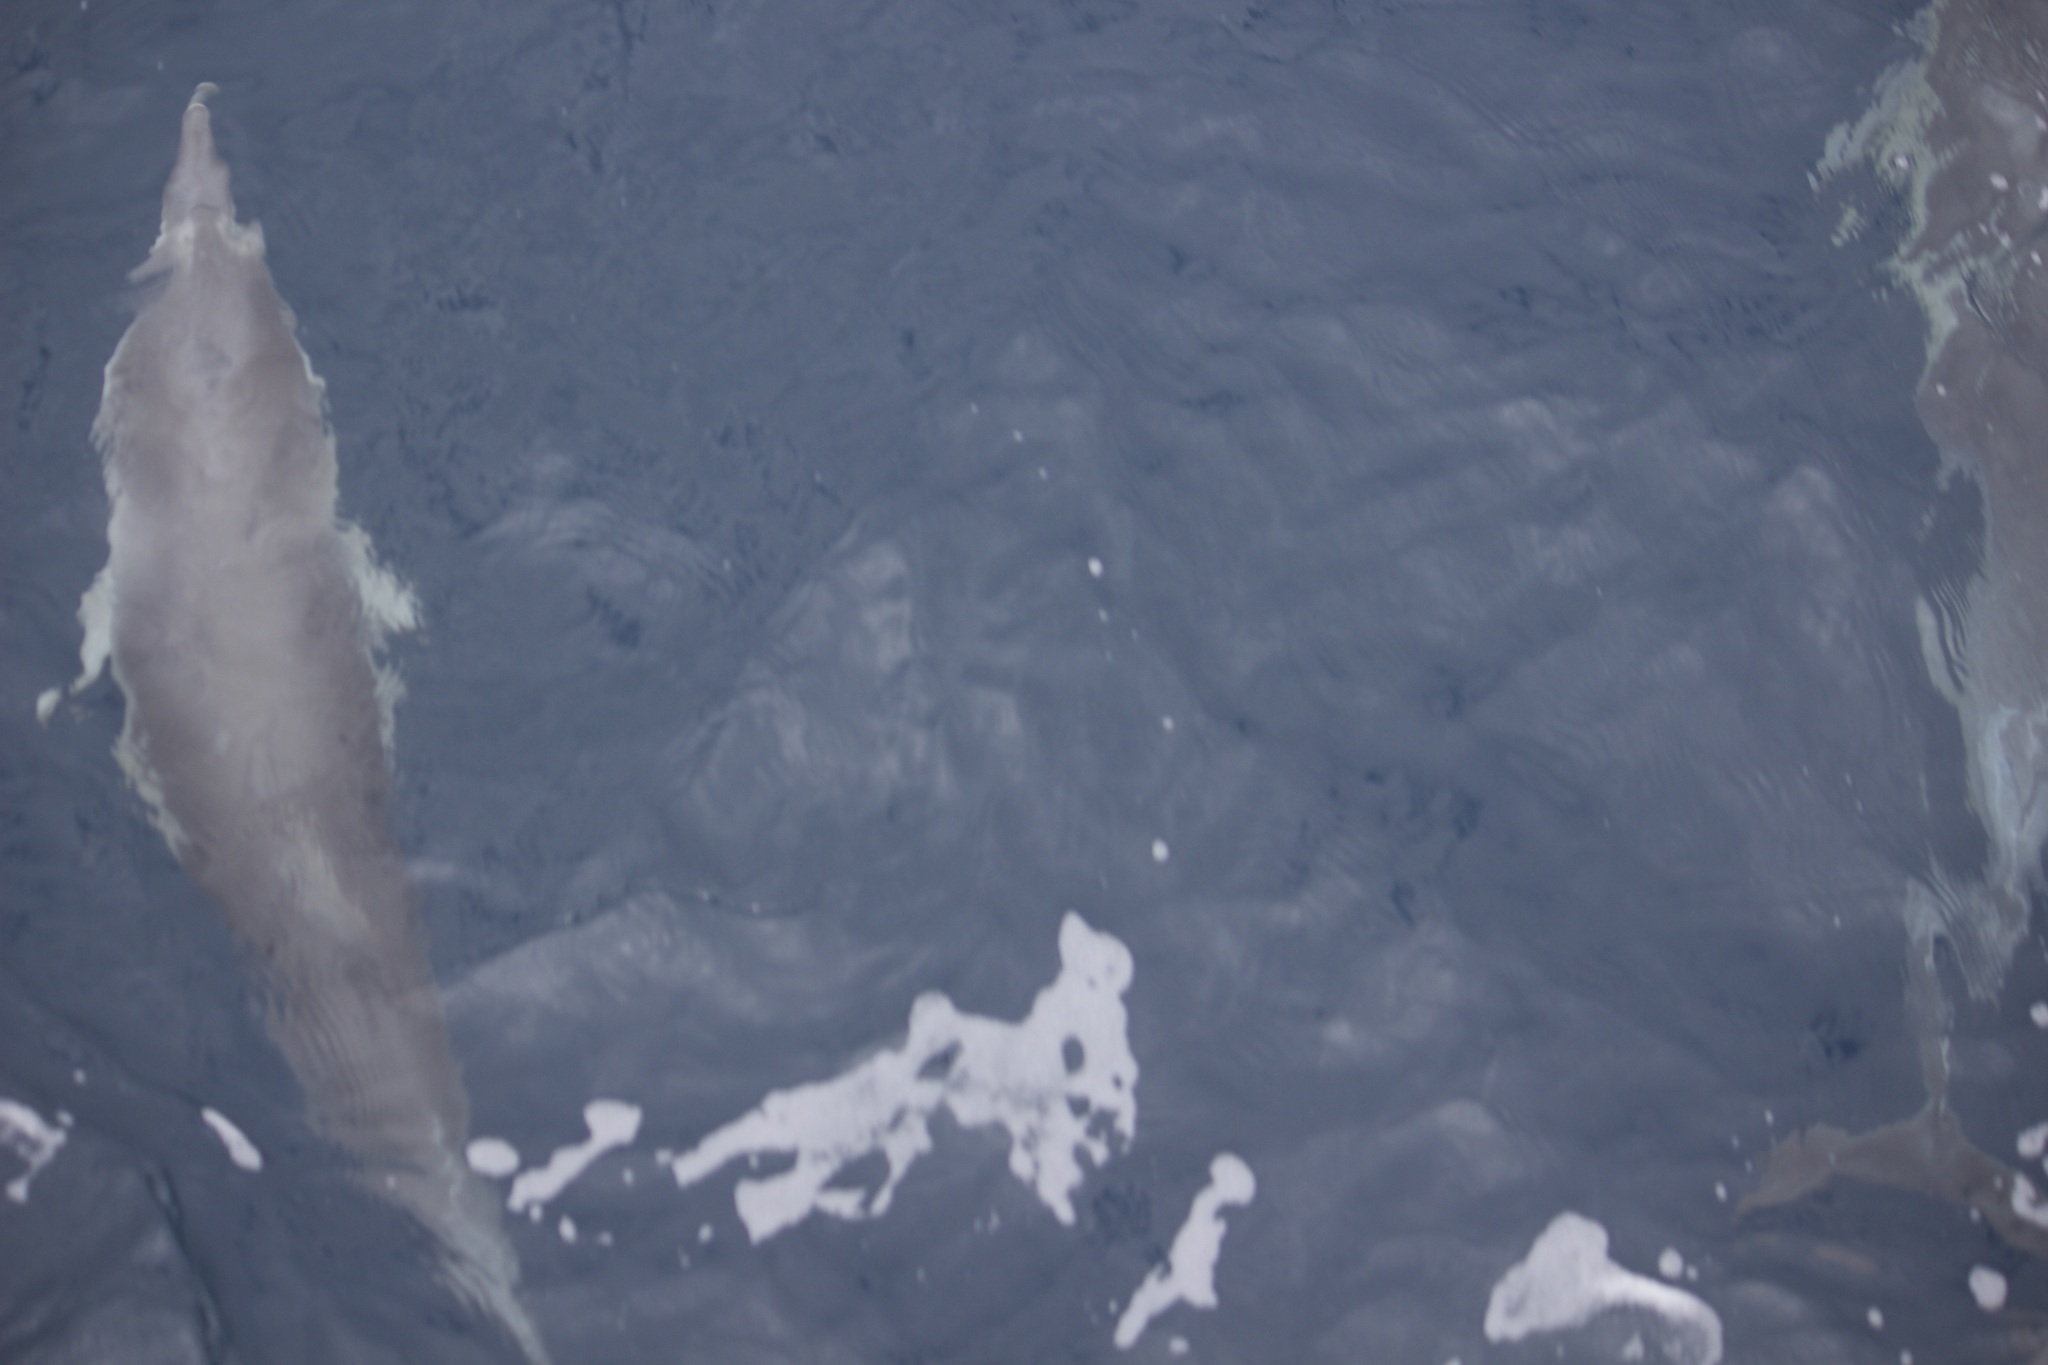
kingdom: Animalia
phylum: Chordata
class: Mammalia
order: Cetacea
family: Delphinidae
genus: Delphinus
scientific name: Delphinus delphis
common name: Common dolphin
